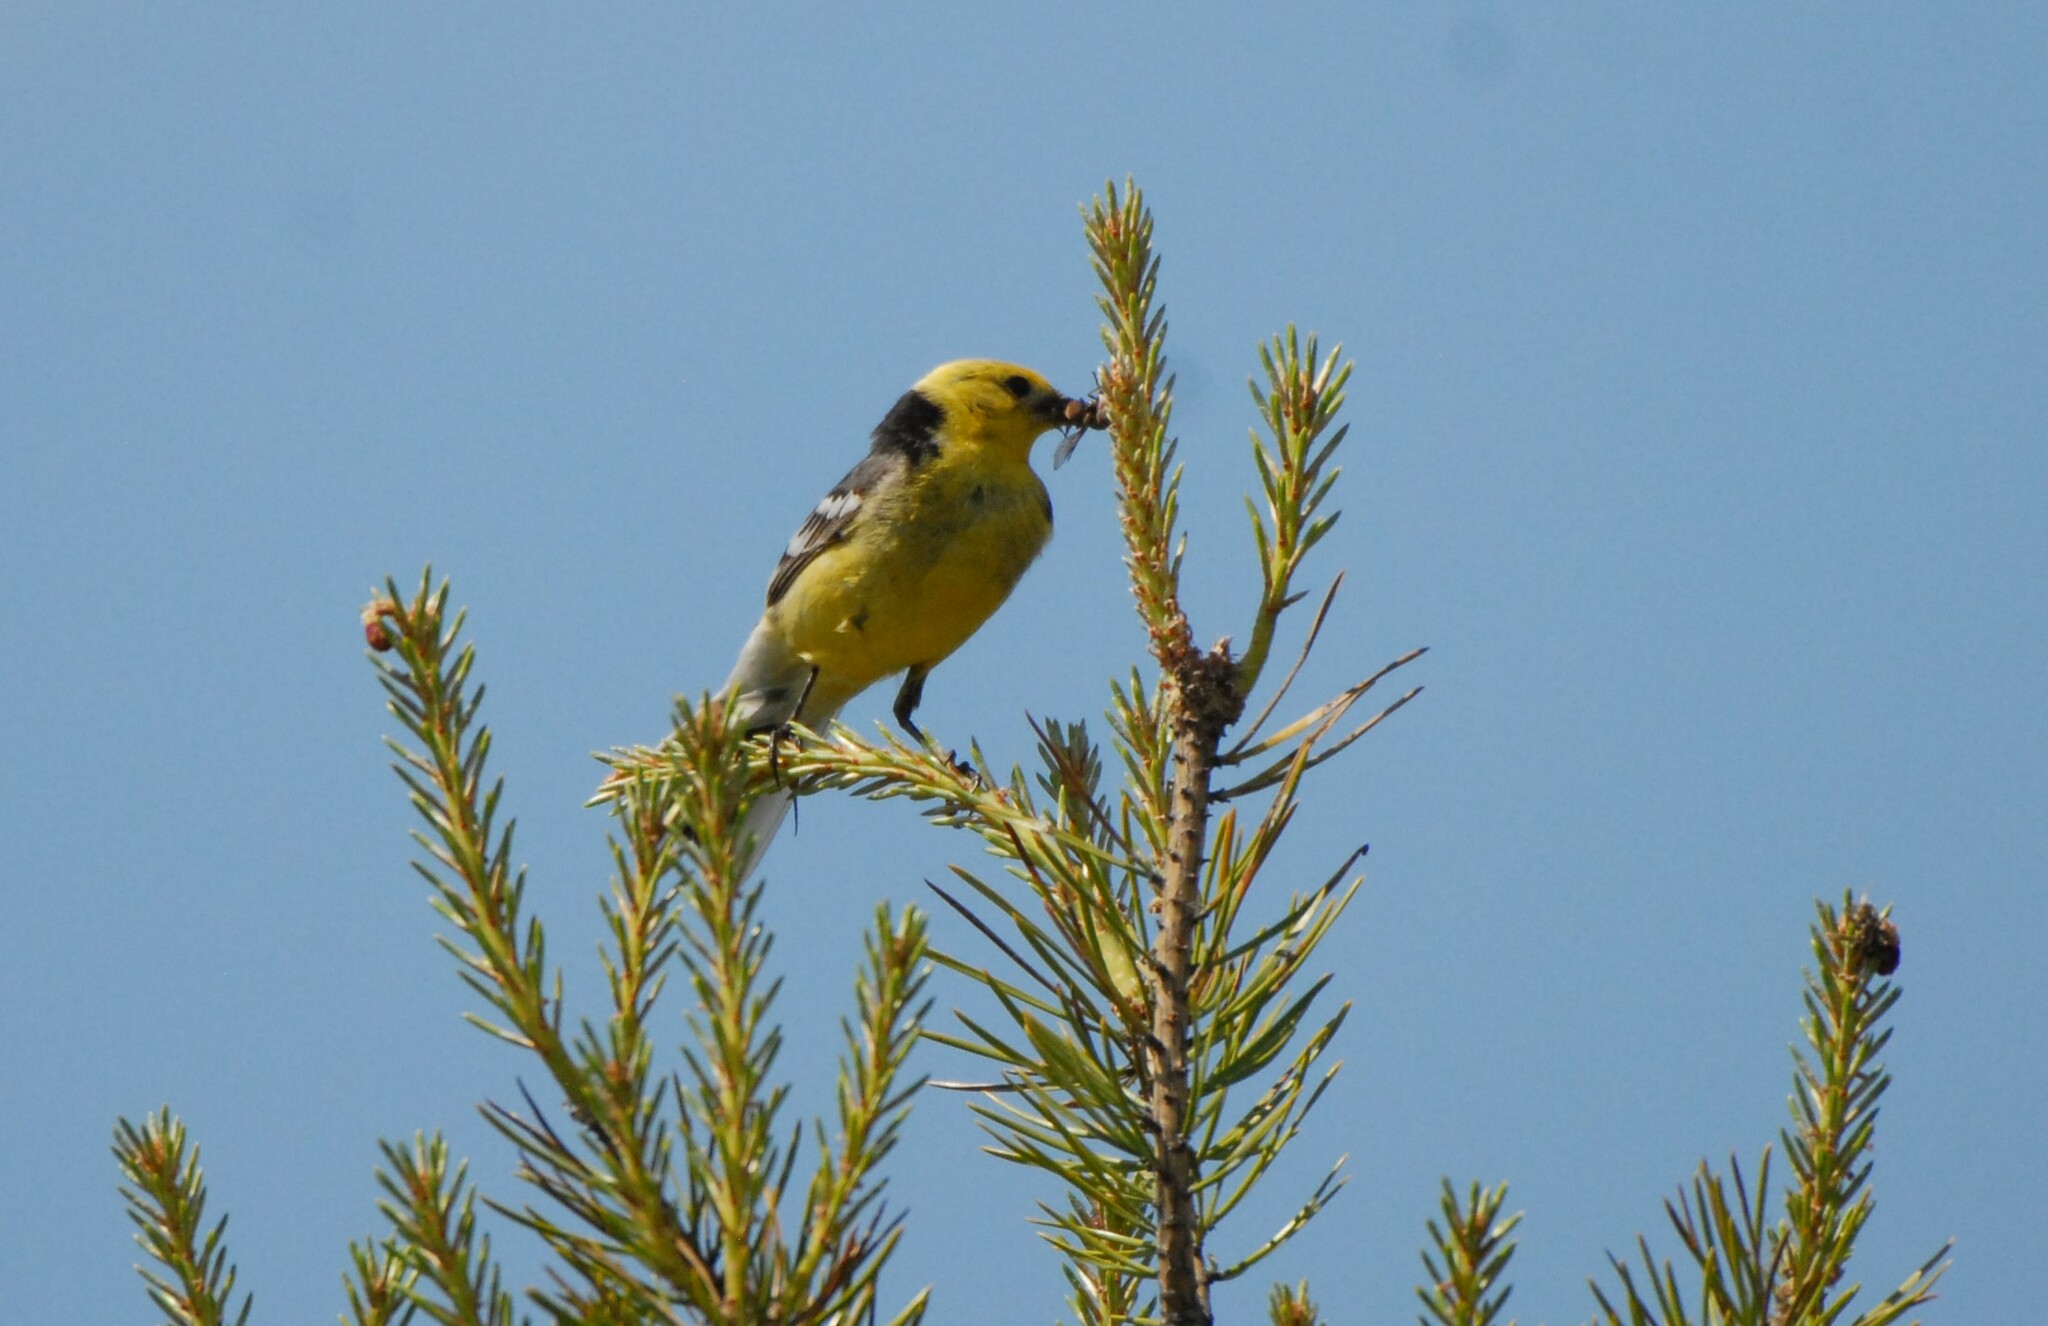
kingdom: Animalia
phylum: Chordata
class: Aves
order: Passeriformes
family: Motacillidae
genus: Motacilla
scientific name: Motacilla citreola
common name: Citrine wagtail
